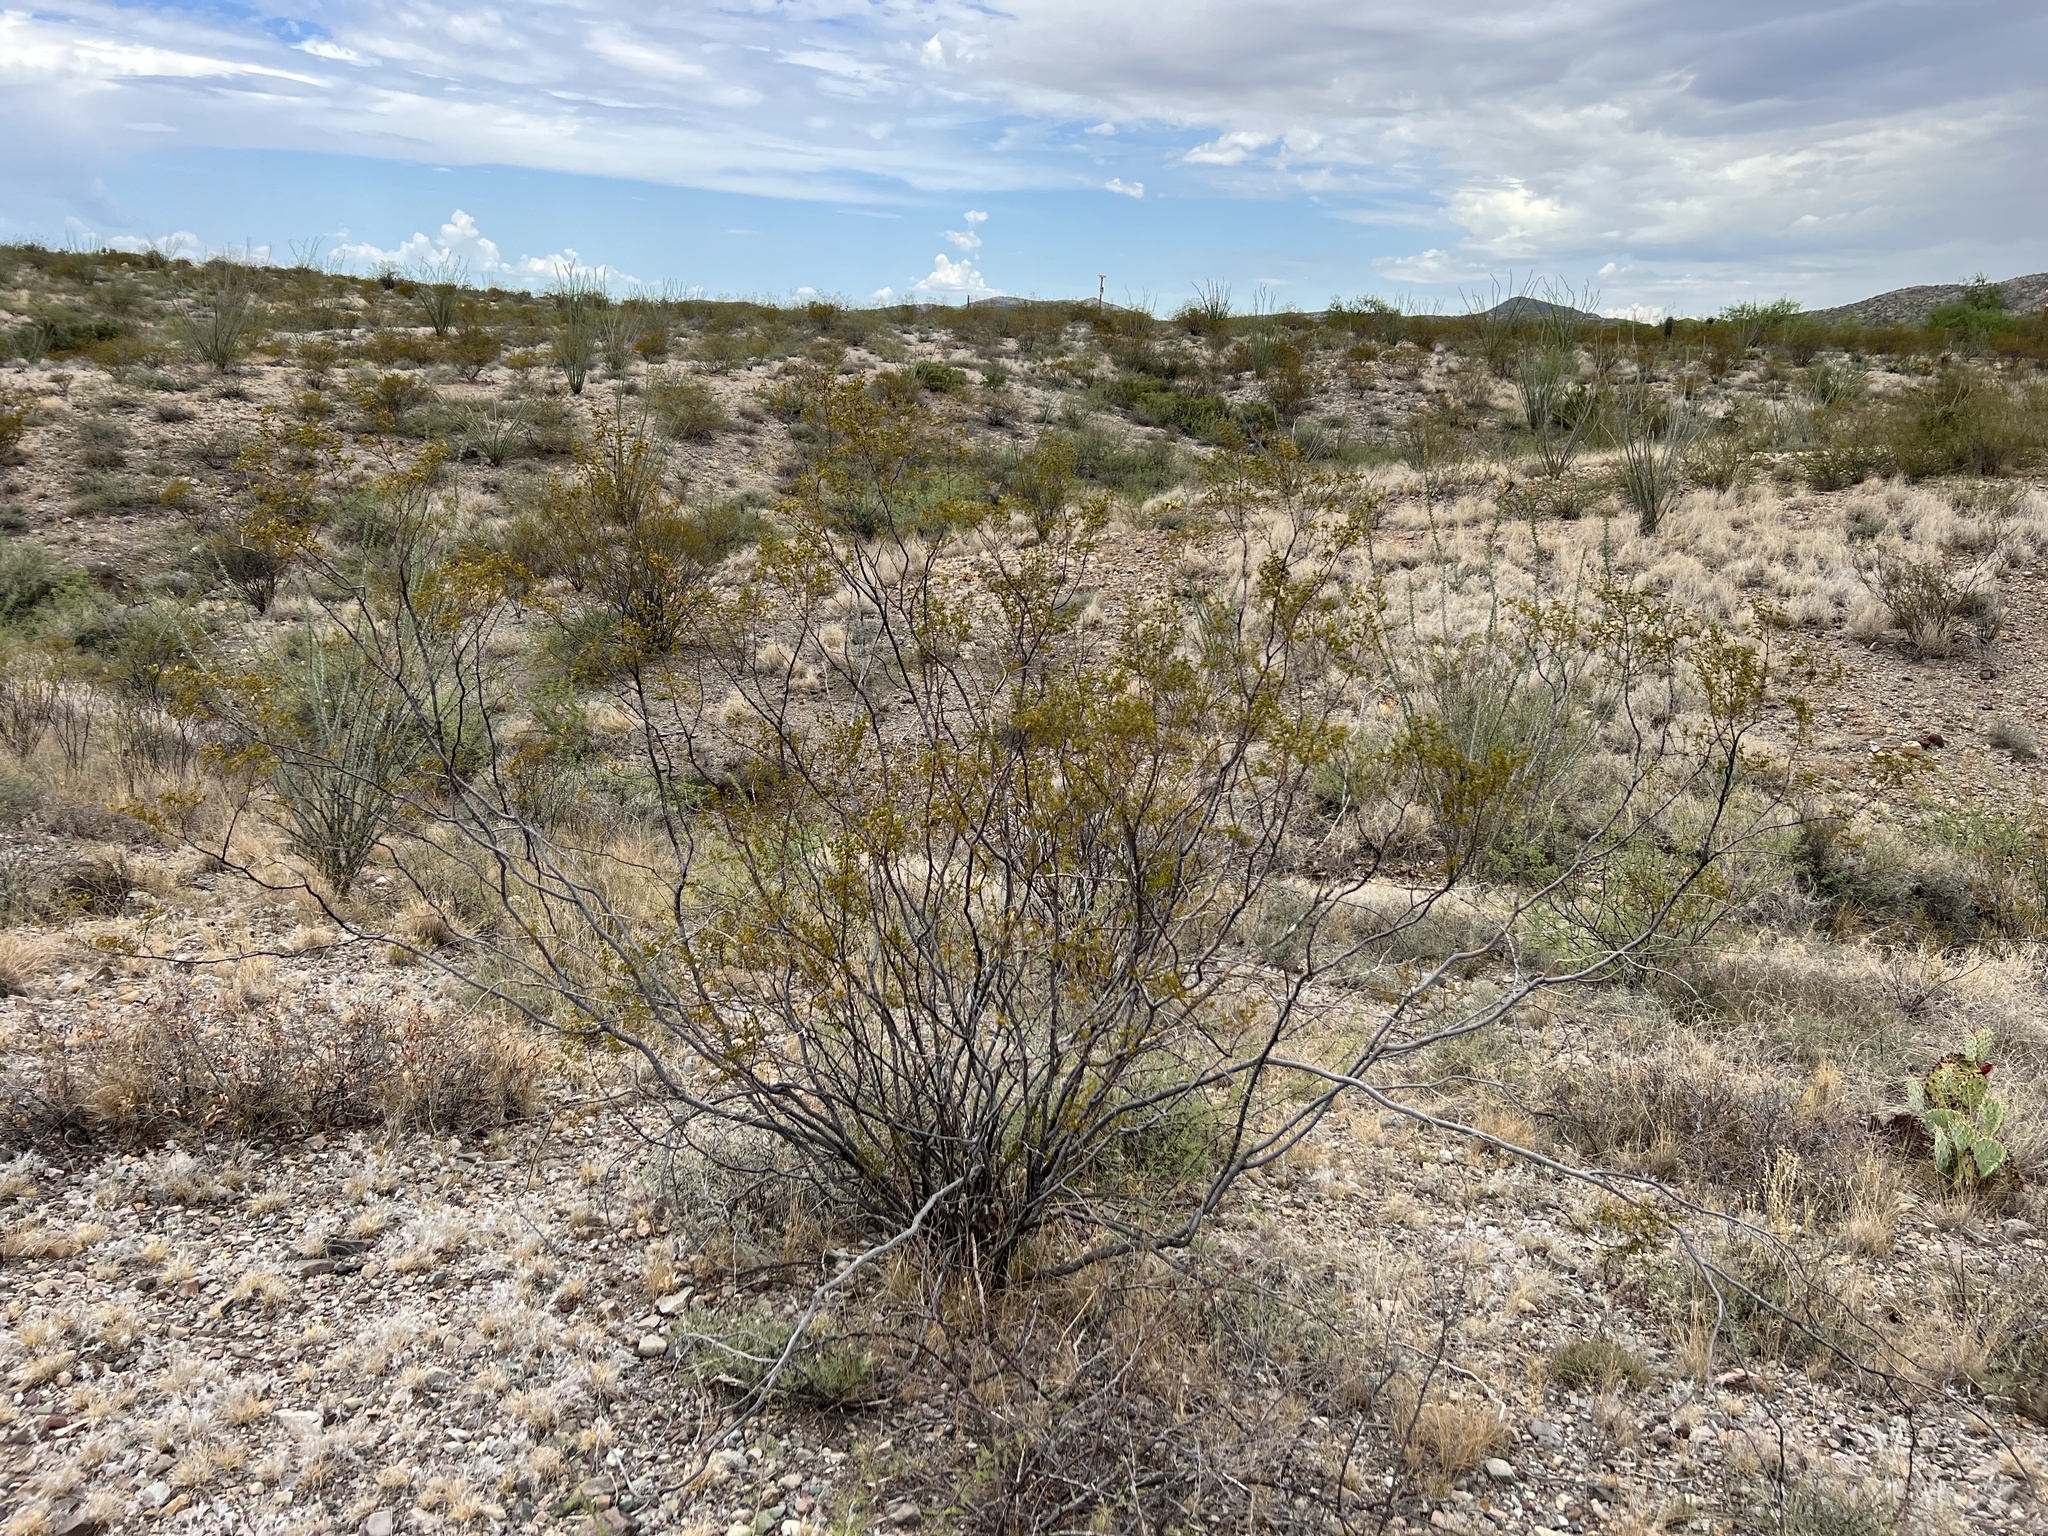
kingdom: Plantae
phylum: Tracheophyta
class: Magnoliopsida
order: Zygophyllales
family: Zygophyllaceae
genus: Larrea
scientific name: Larrea tridentata
